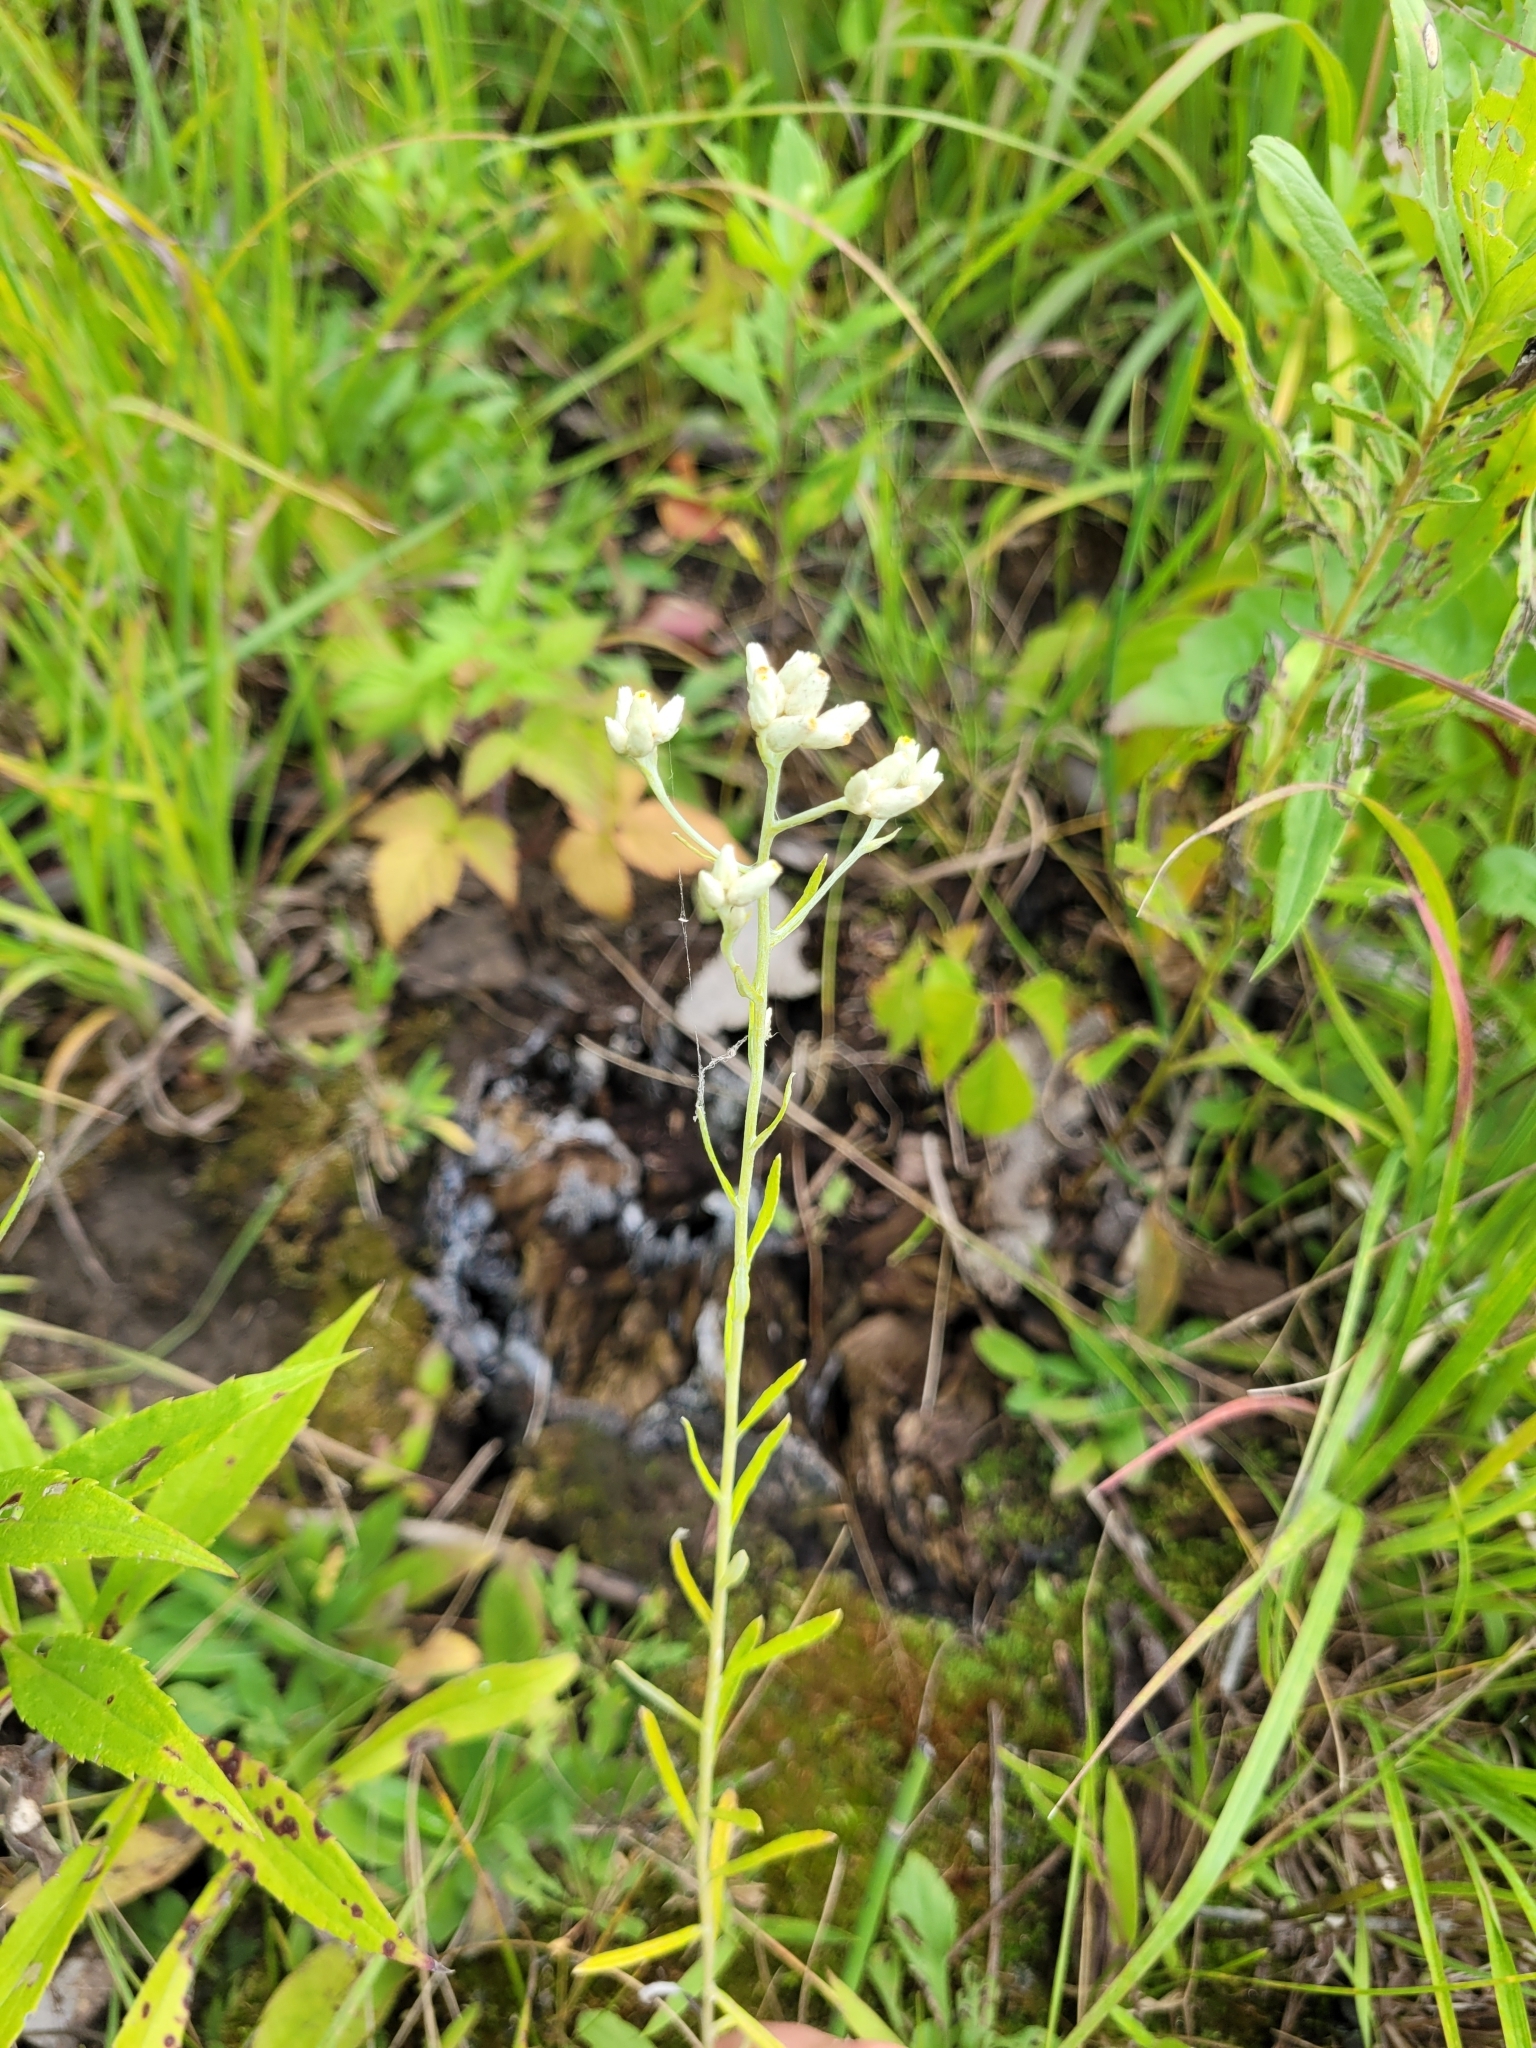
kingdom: Plantae
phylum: Tracheophyta
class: Magnoliopsida
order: Asterales
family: Asteraceae
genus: Pseudognaphalium
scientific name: Pseudognaphalium obtusifolium
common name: Eastern rabbit-tobacco
